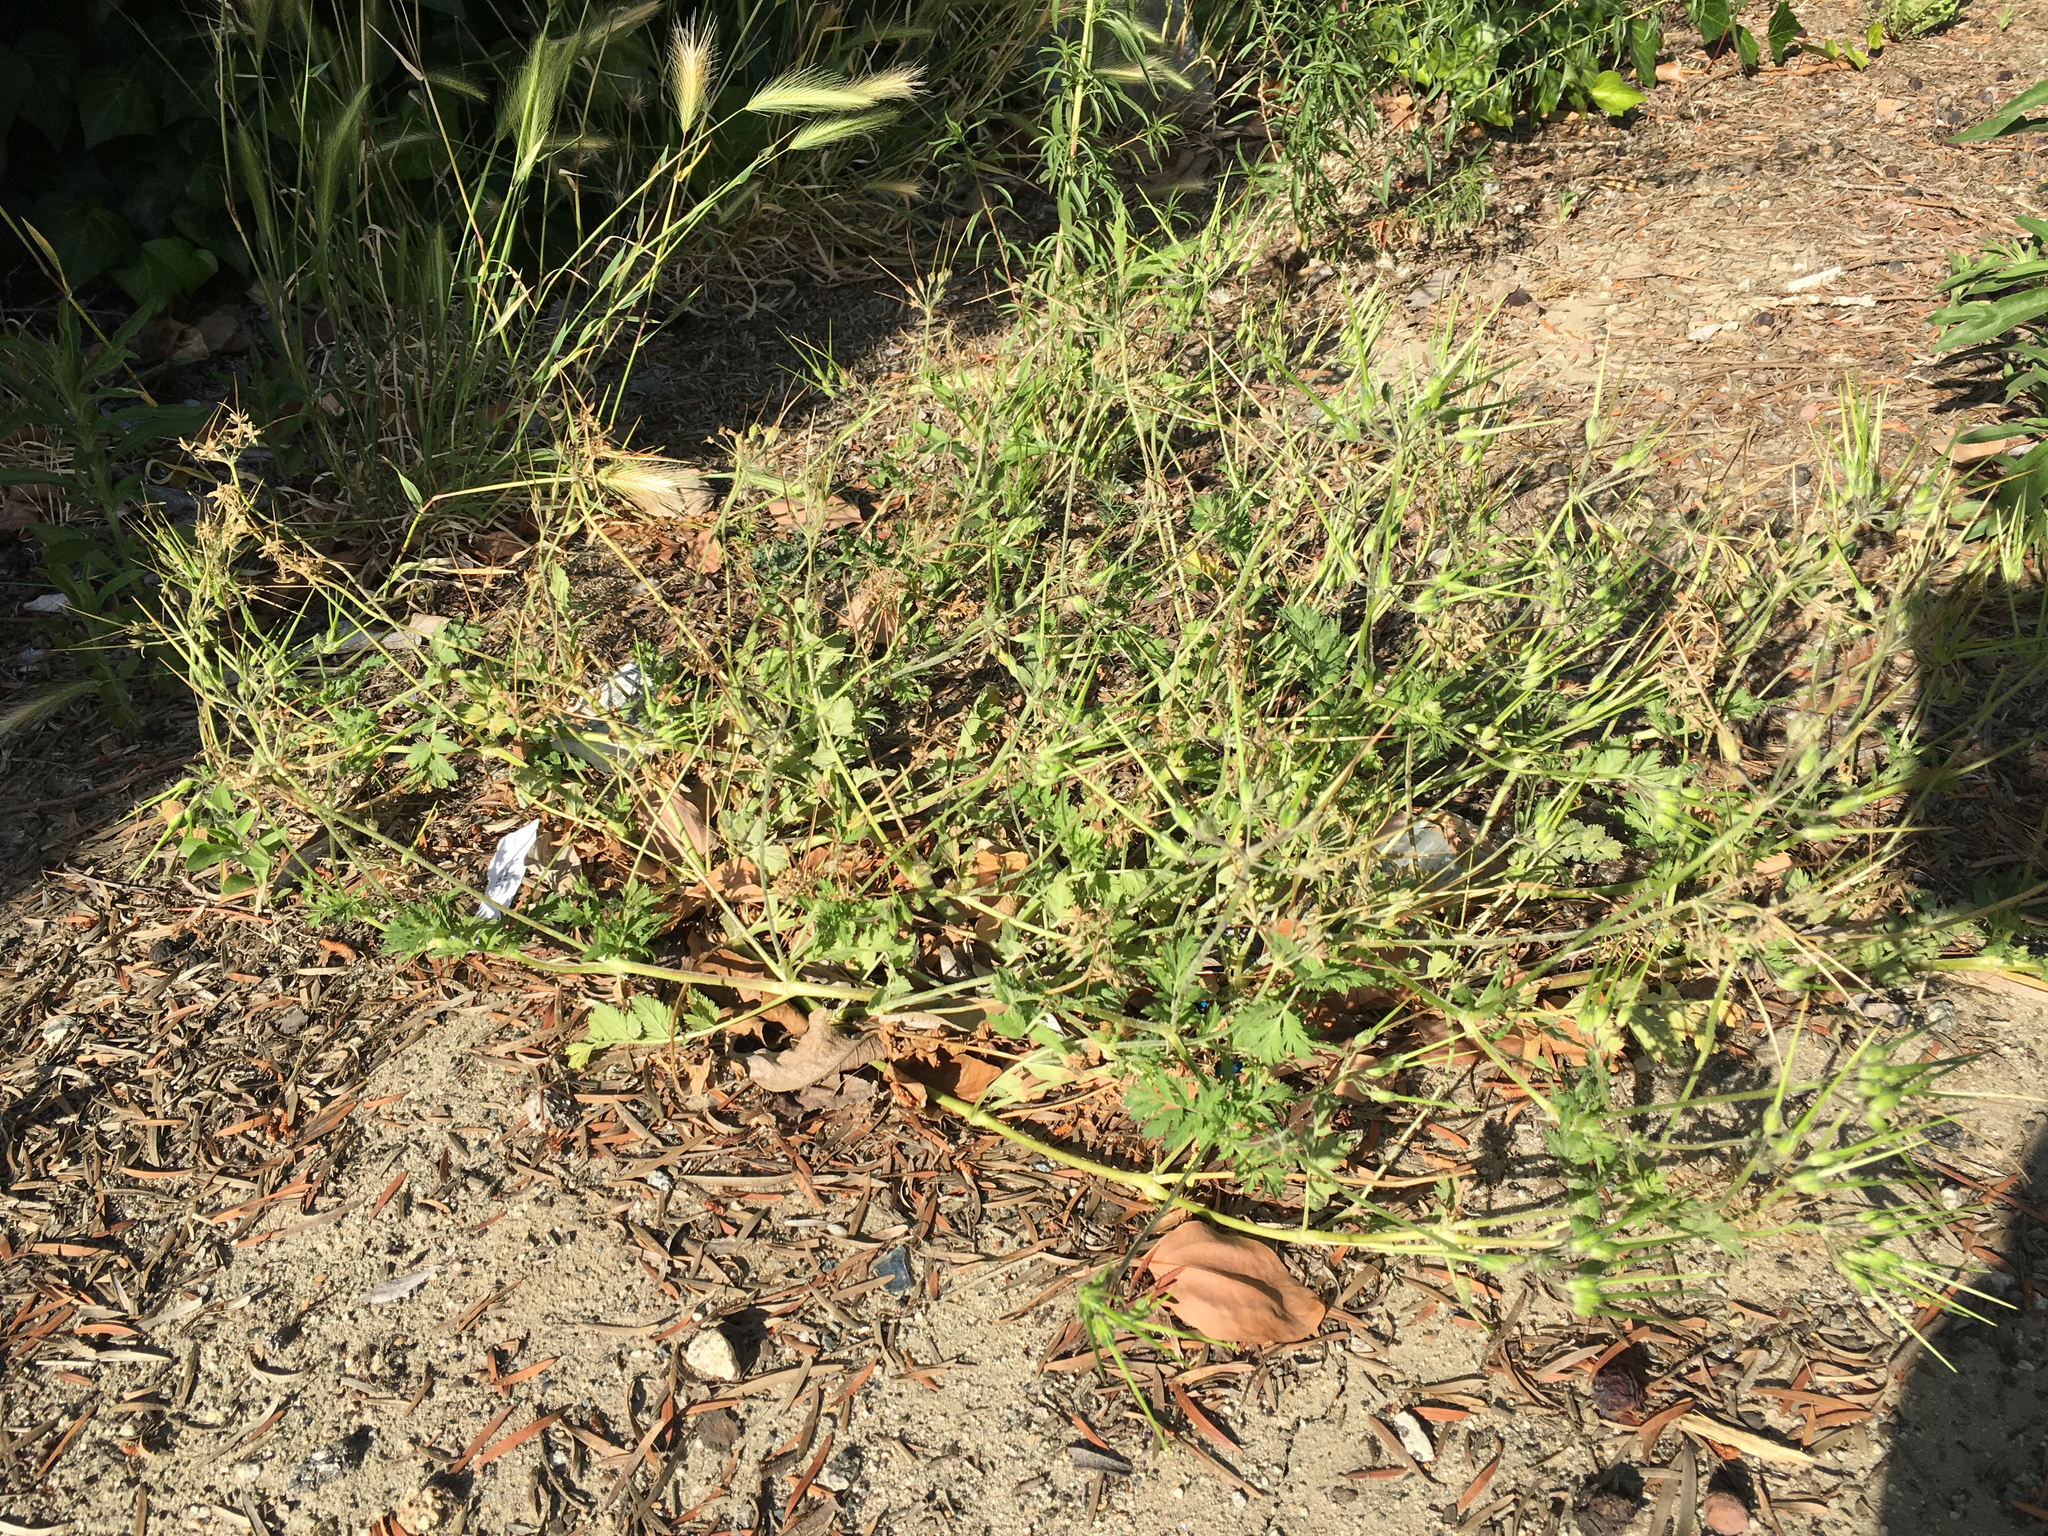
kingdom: Plantae
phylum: Tracheophyta
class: Magnoliopsida
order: Geraniales
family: Geraniaceae
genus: Erodium
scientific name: Erodium moschatum
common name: Musk stork's-bill
